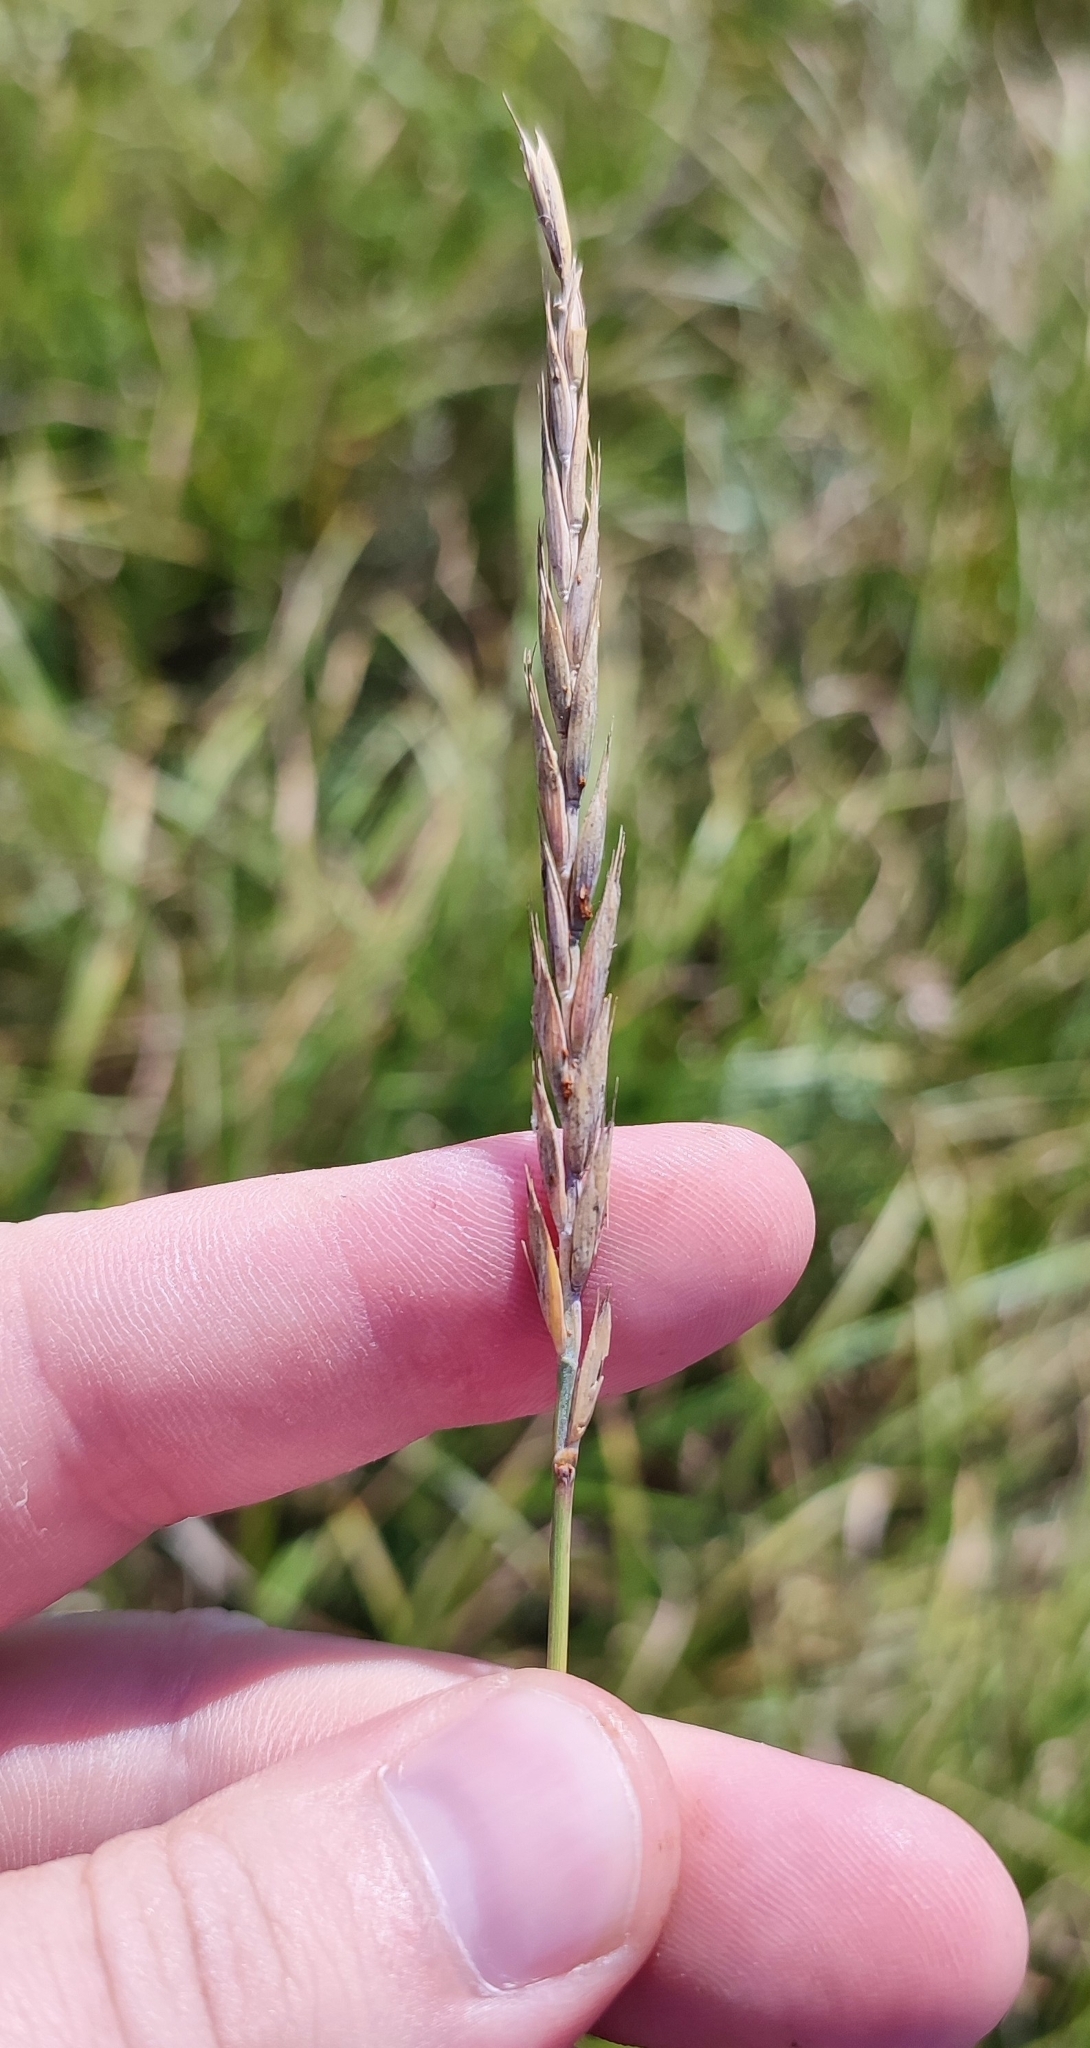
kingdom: Plantae
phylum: Tracheophyta
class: Liliopsida
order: Poales
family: Poaceae
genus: Elymus
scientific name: Elymus repens
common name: Quackgrass
